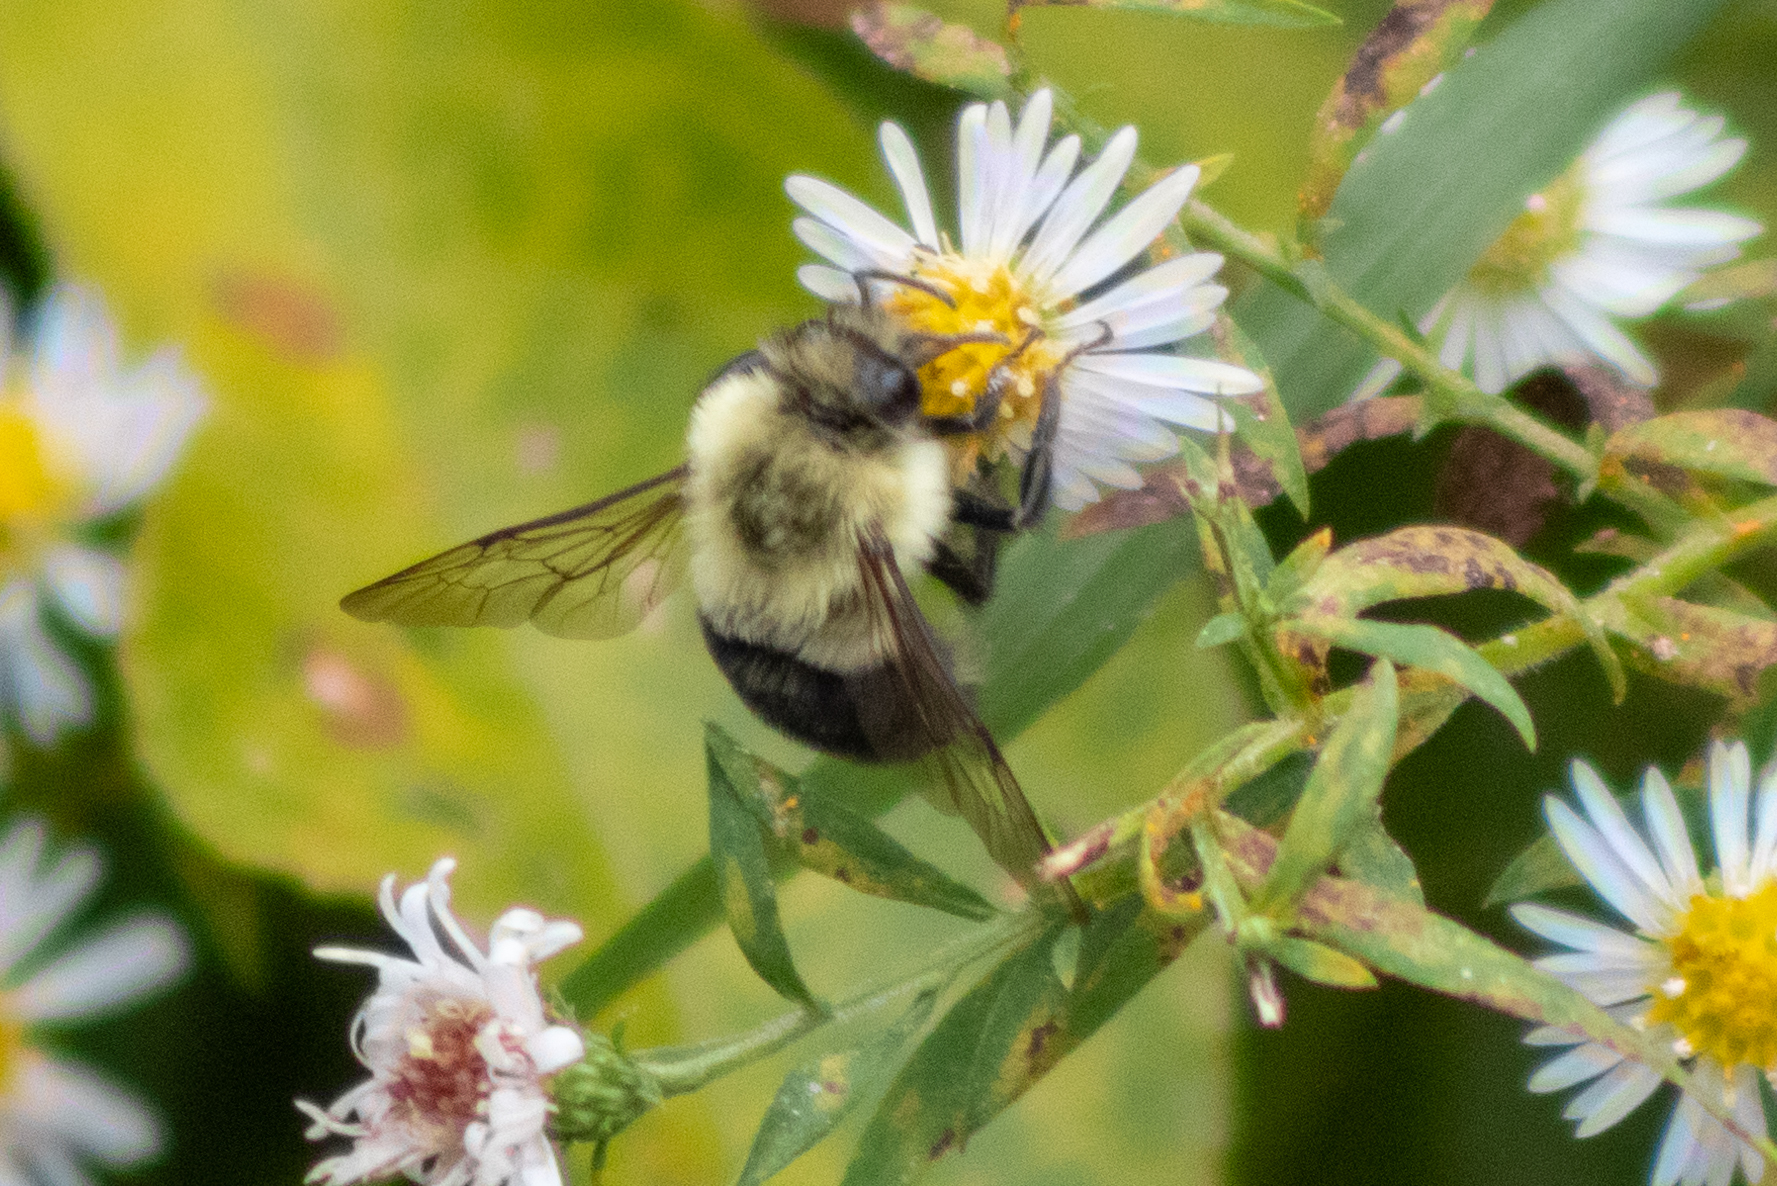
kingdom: Animalia
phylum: Arthropoda
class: Insecta
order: Hymenoptera
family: Apidae
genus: Bombus
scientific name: Bombus impatiens
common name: Common eastern bumble bee
